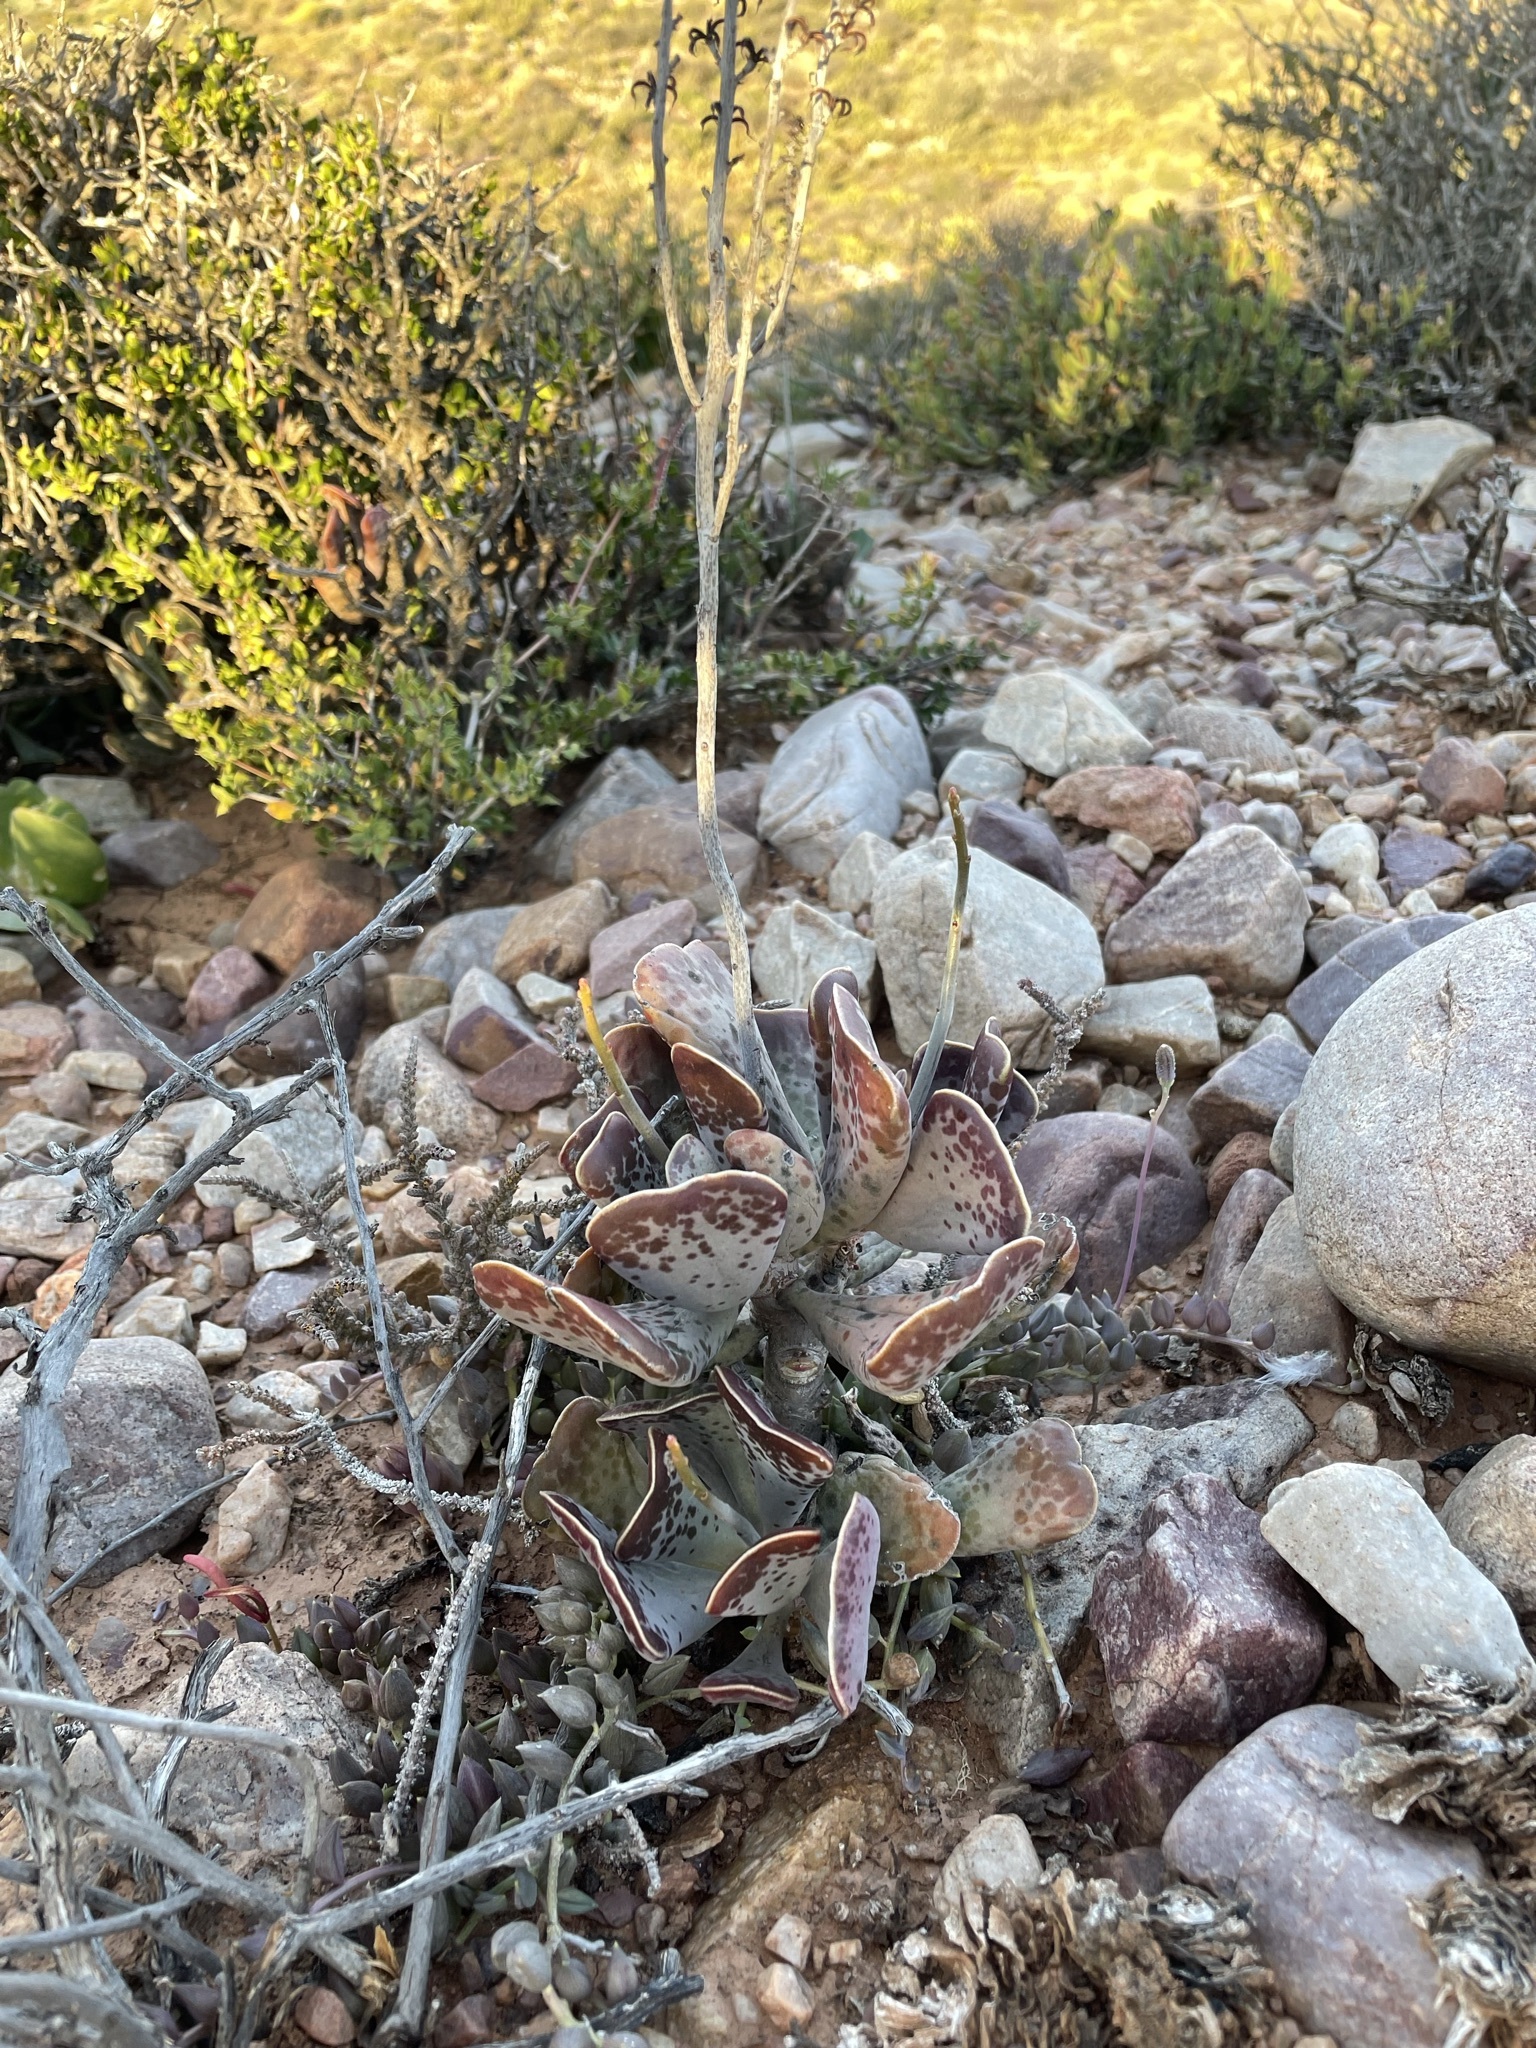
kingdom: Plantae
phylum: Tracheophyta
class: Magnoliopsida
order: Saxifragales
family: Crassulaceae
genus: Adromischus
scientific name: Adromischus triflorus
